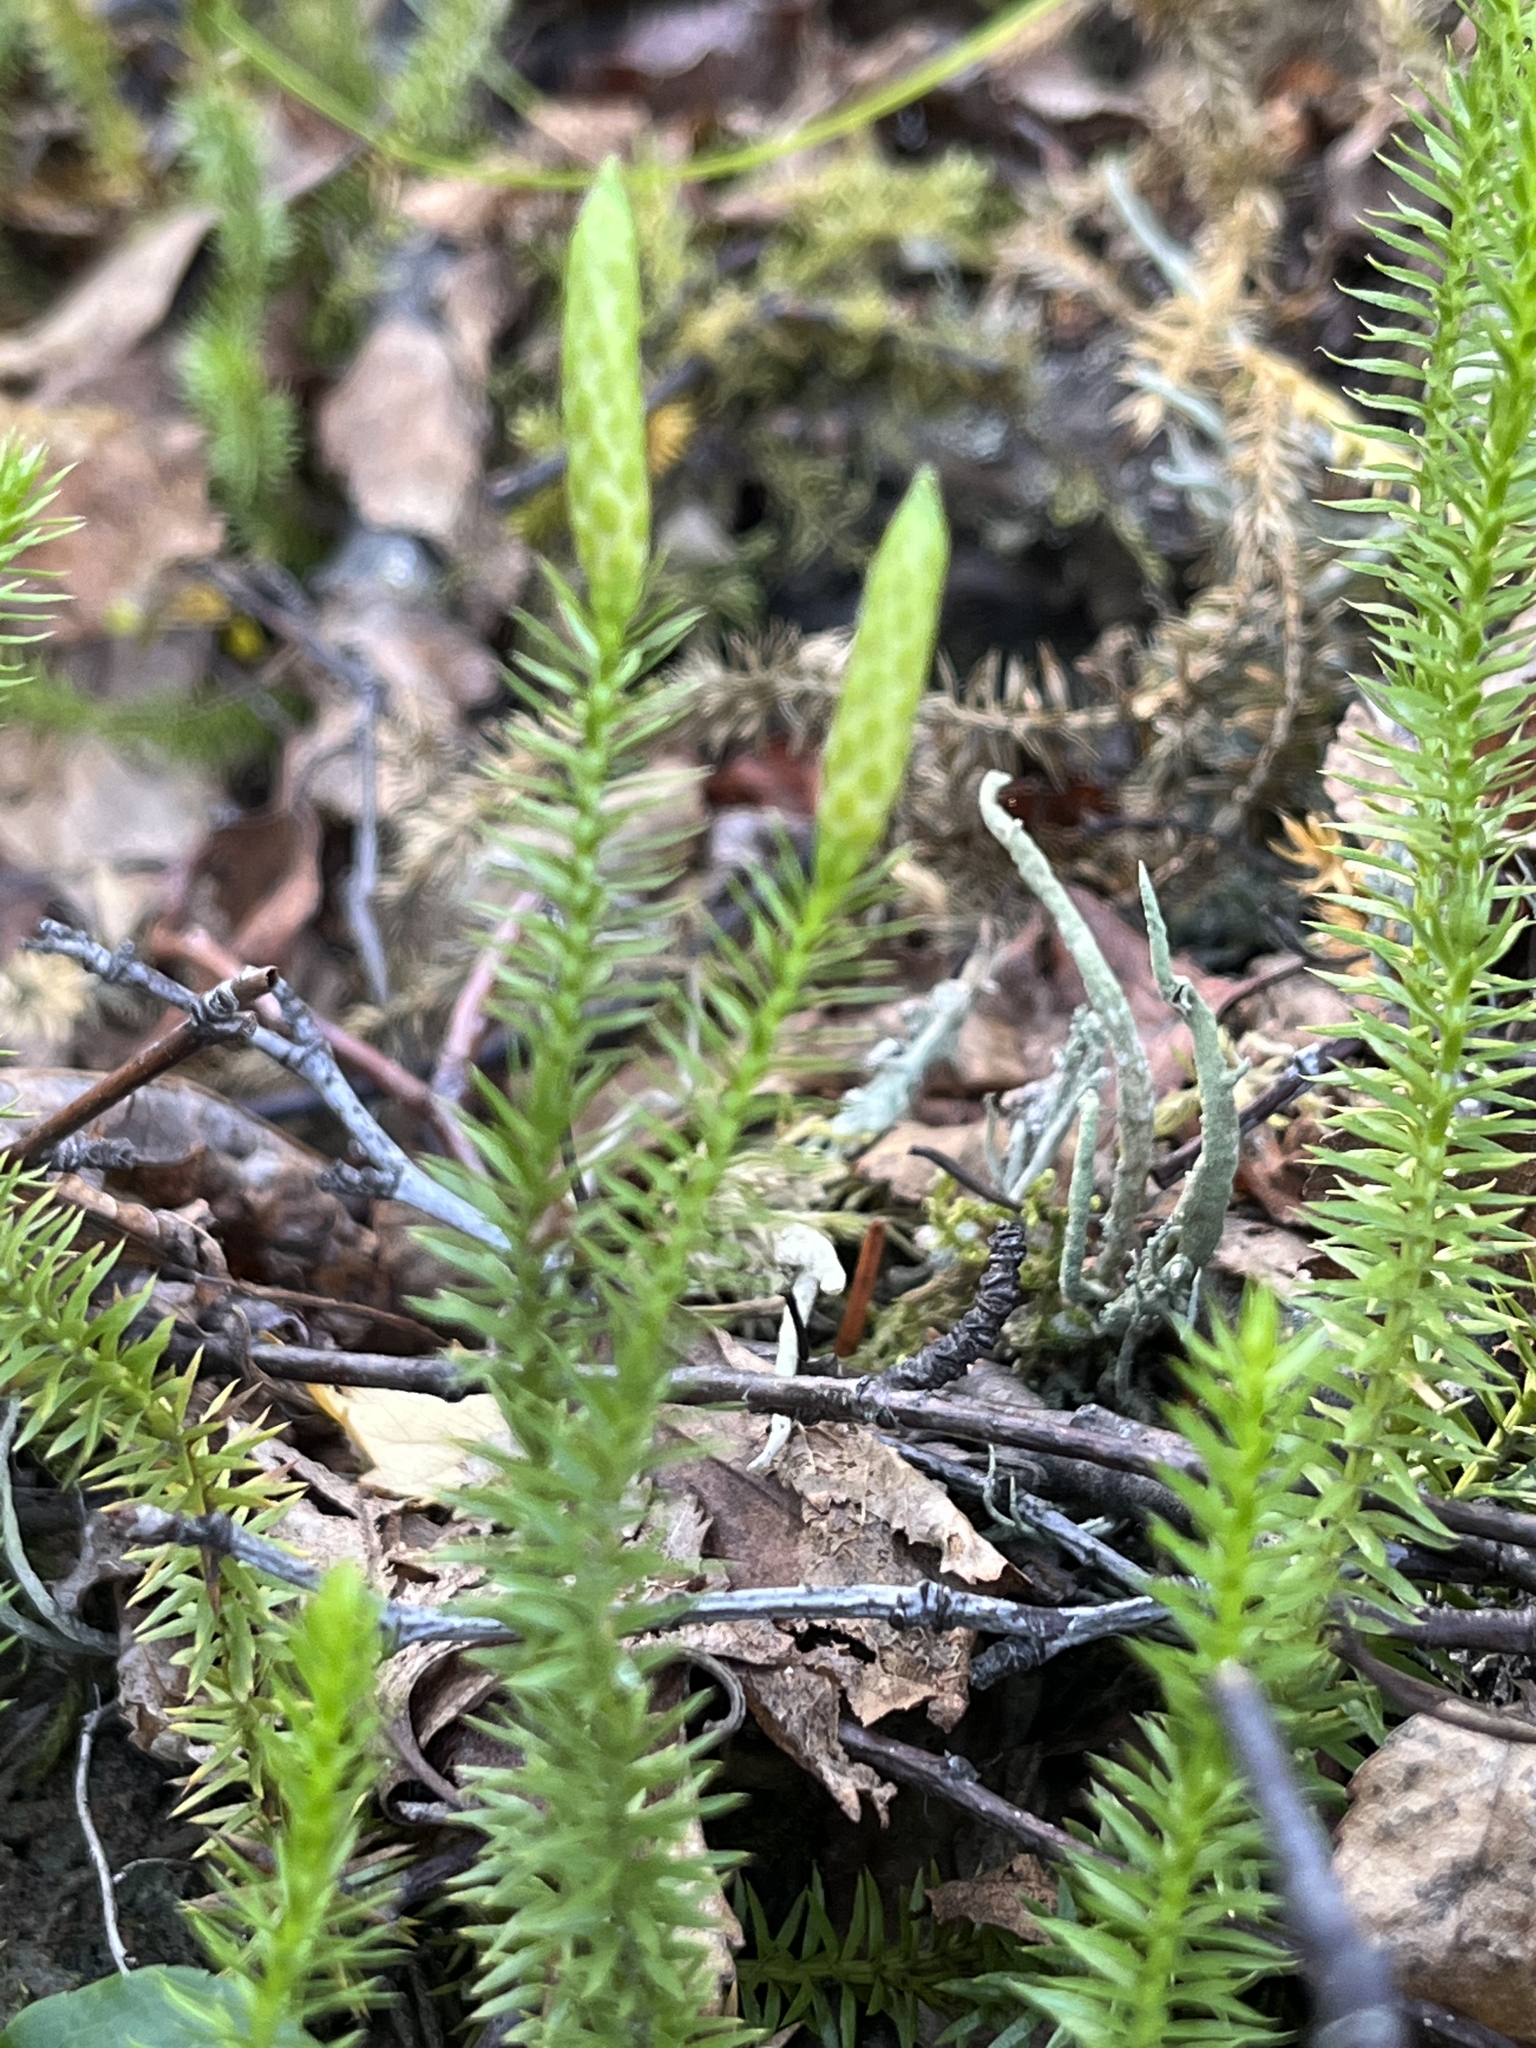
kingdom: Plantae
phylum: Tracheophyta
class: Lycopodiopsida
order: Lycopodiales
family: Lycopodiaceae
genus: Spinulum
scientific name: Spinulum annotinum
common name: Interrupted club-moss
